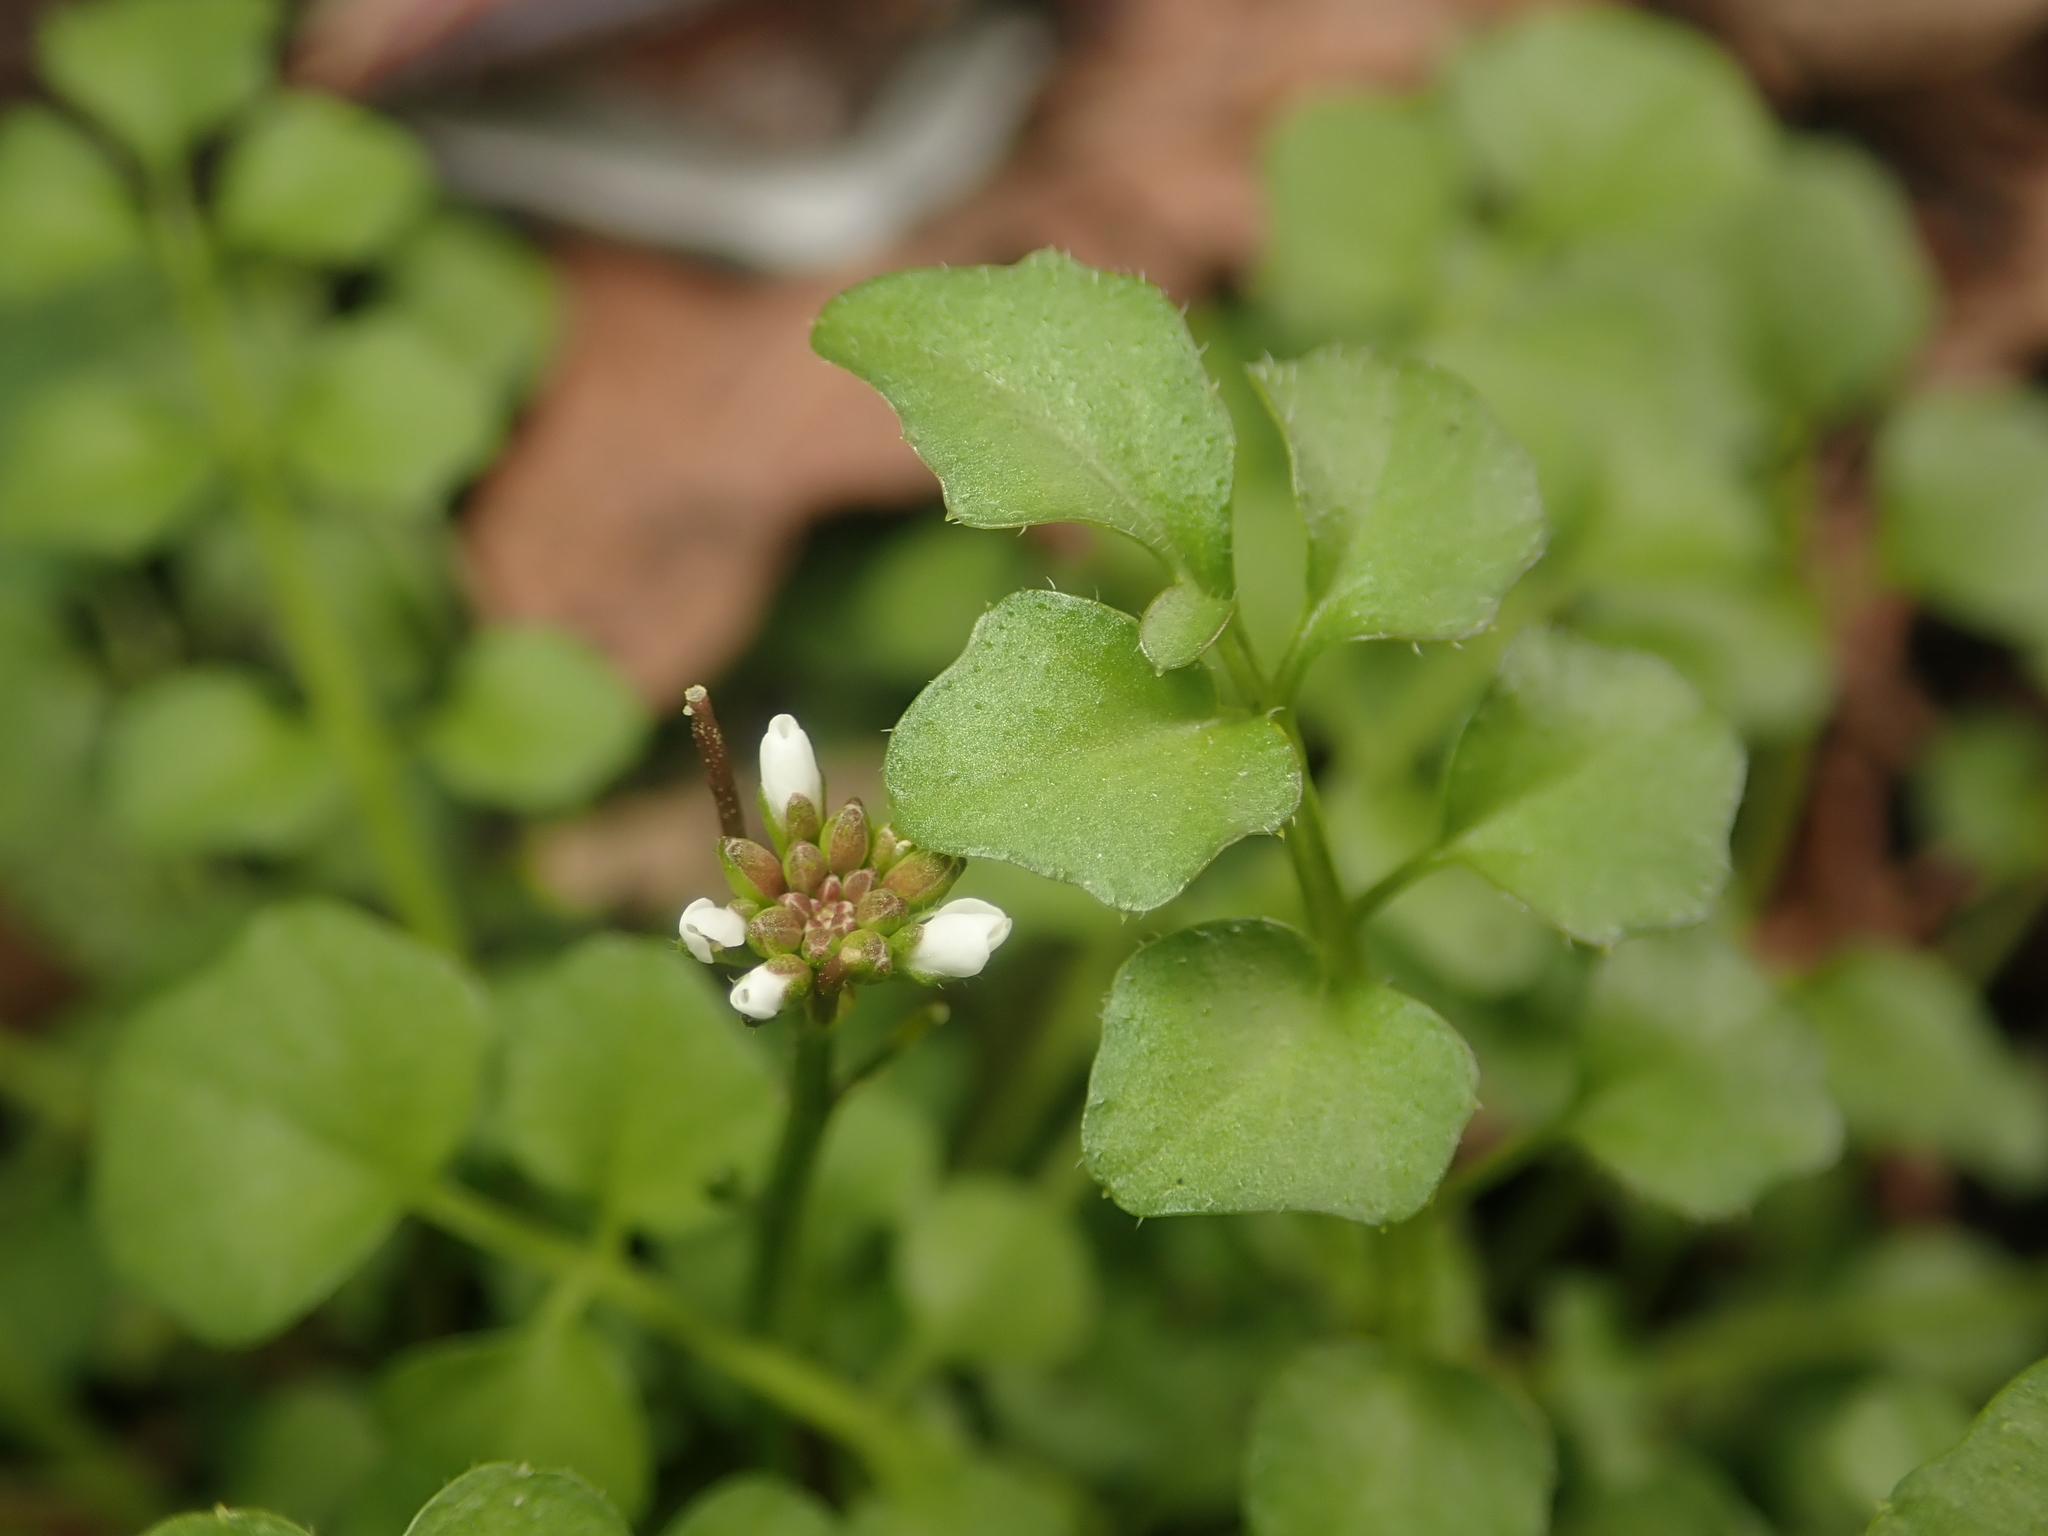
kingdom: Plantae
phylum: Tracheophyta
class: Magnoliopsida
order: Brassicales
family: Brassicaceae
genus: Cardamine
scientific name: Cardamine hirsuta
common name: Hairy bittercress
